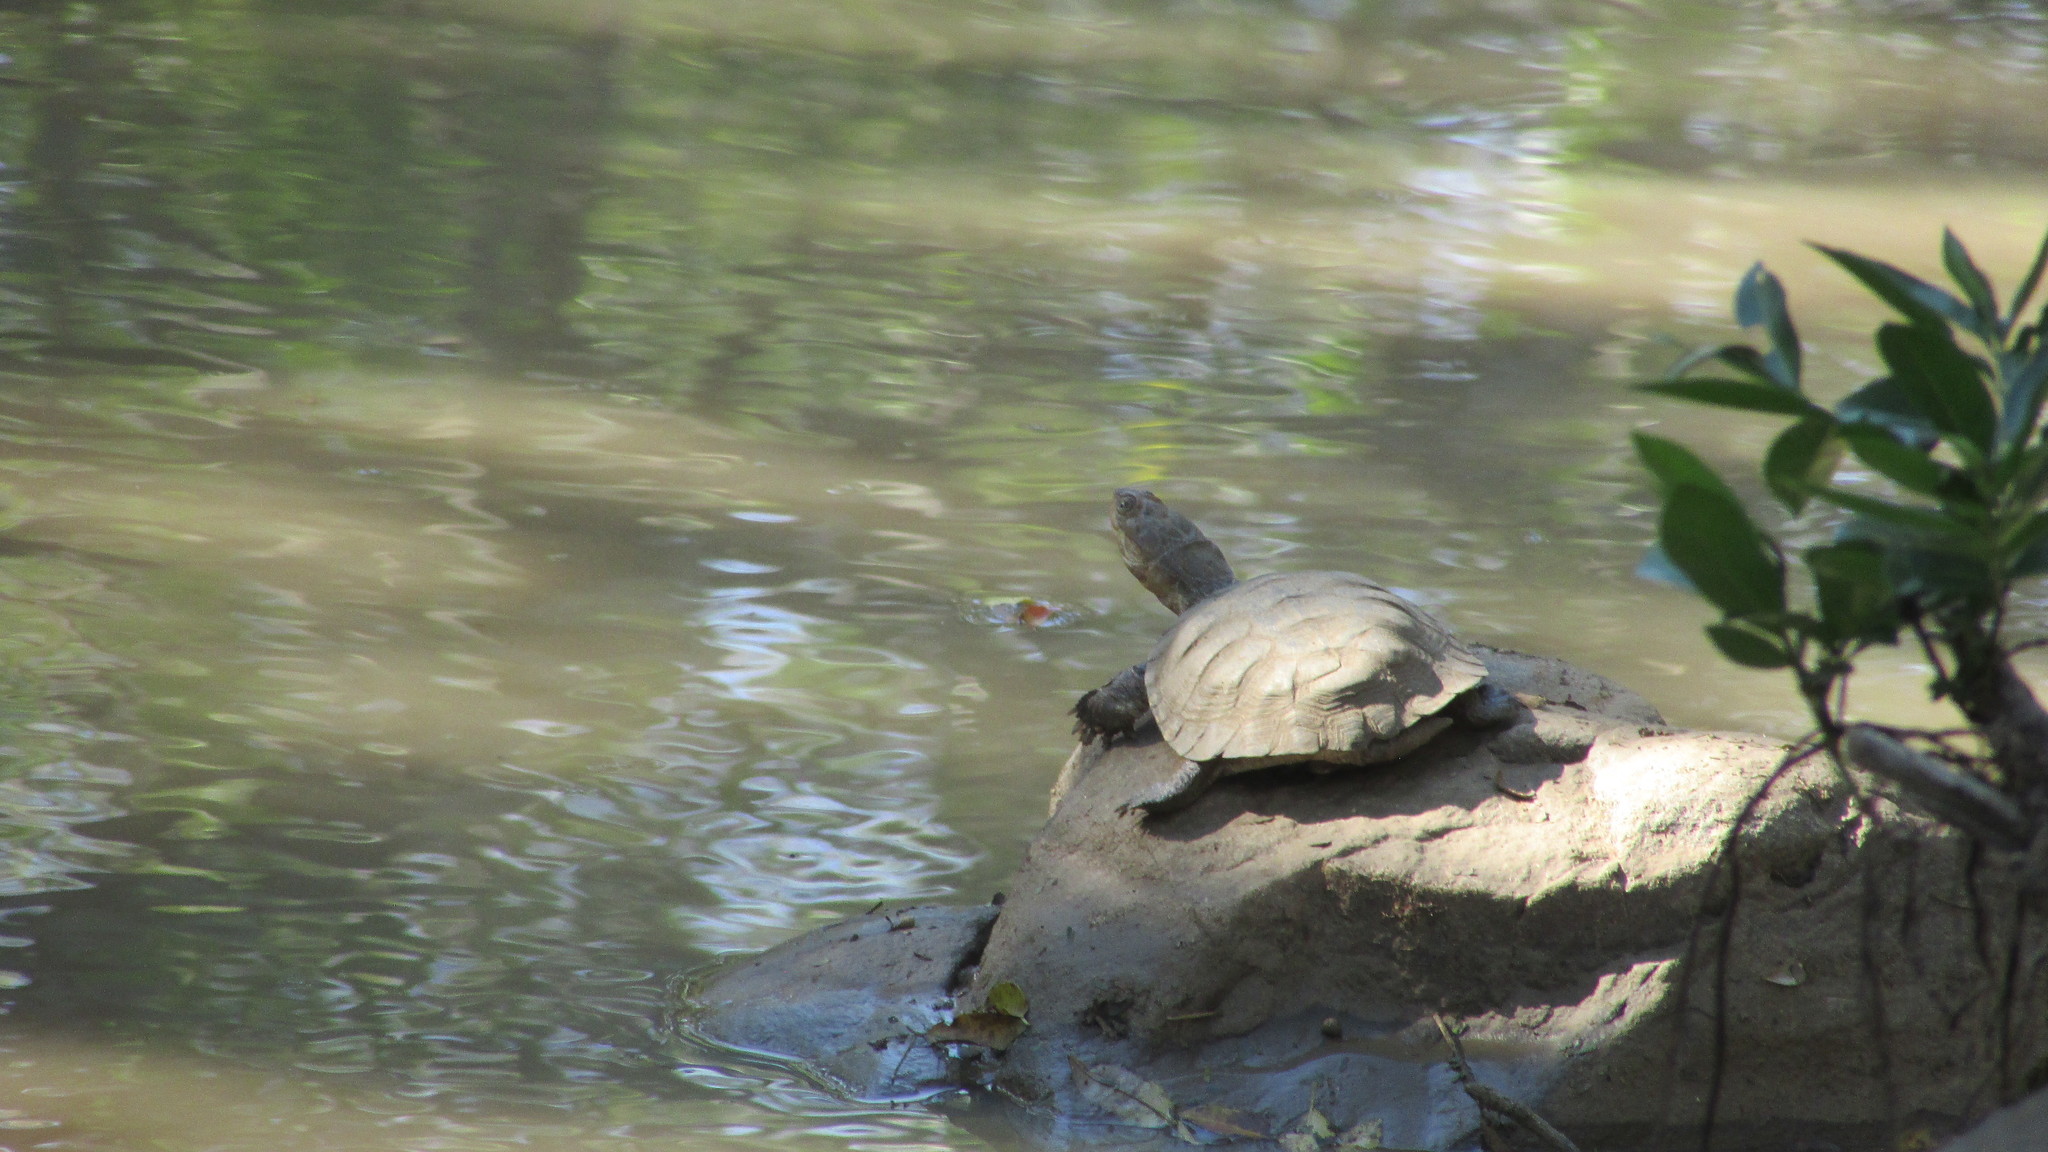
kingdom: Animalia
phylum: Chordata
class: Testudines
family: Pelomedusidae
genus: Pelomedusa
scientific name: Pelomedusa galeata
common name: South african helmeted terrapin
